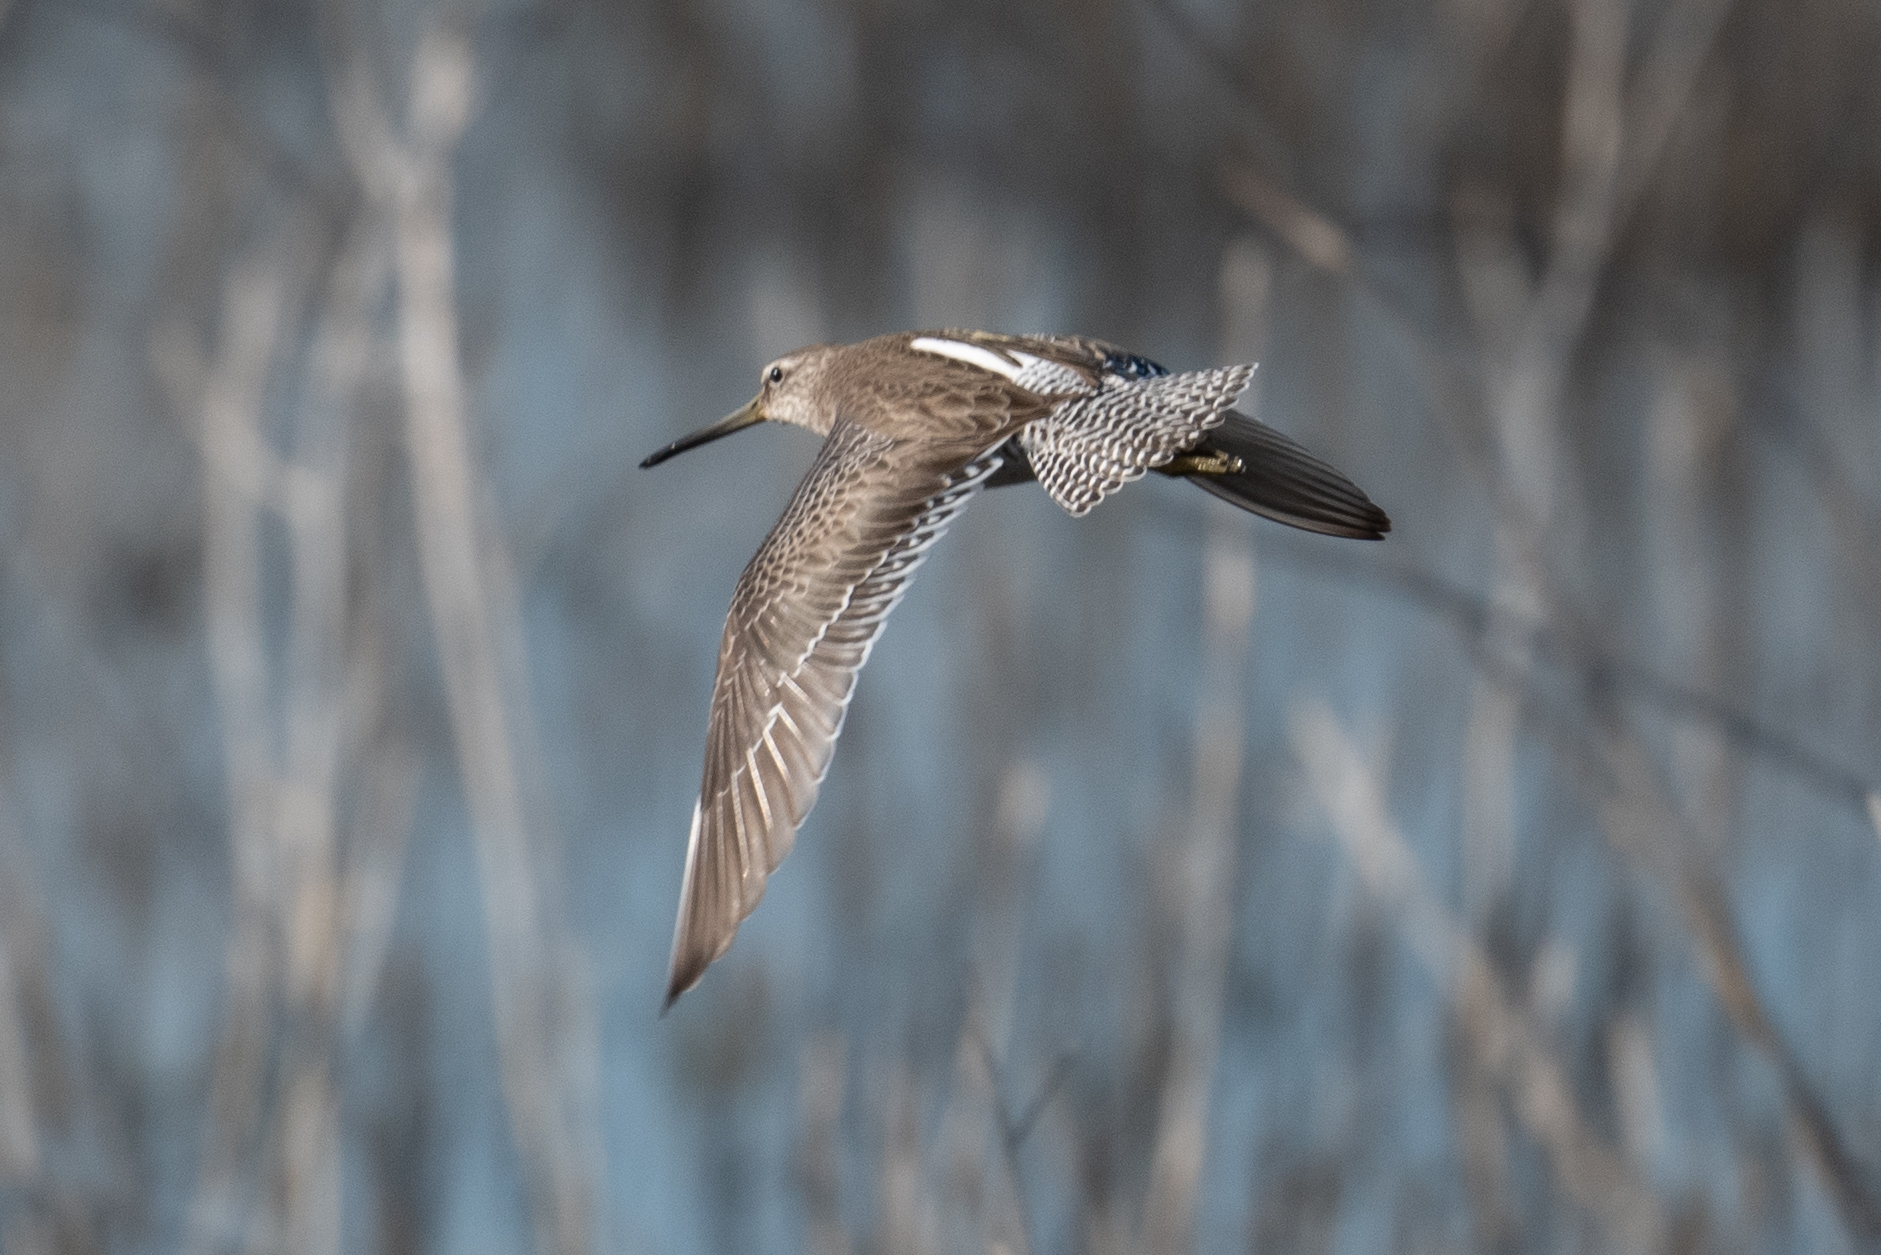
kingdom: Animalia
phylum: Chordata
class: Aves
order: Charadriiformes
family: Scolopacidae
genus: Limnodromus
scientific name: Limnodromus scolopaceus
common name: Long-billed dowitcher
